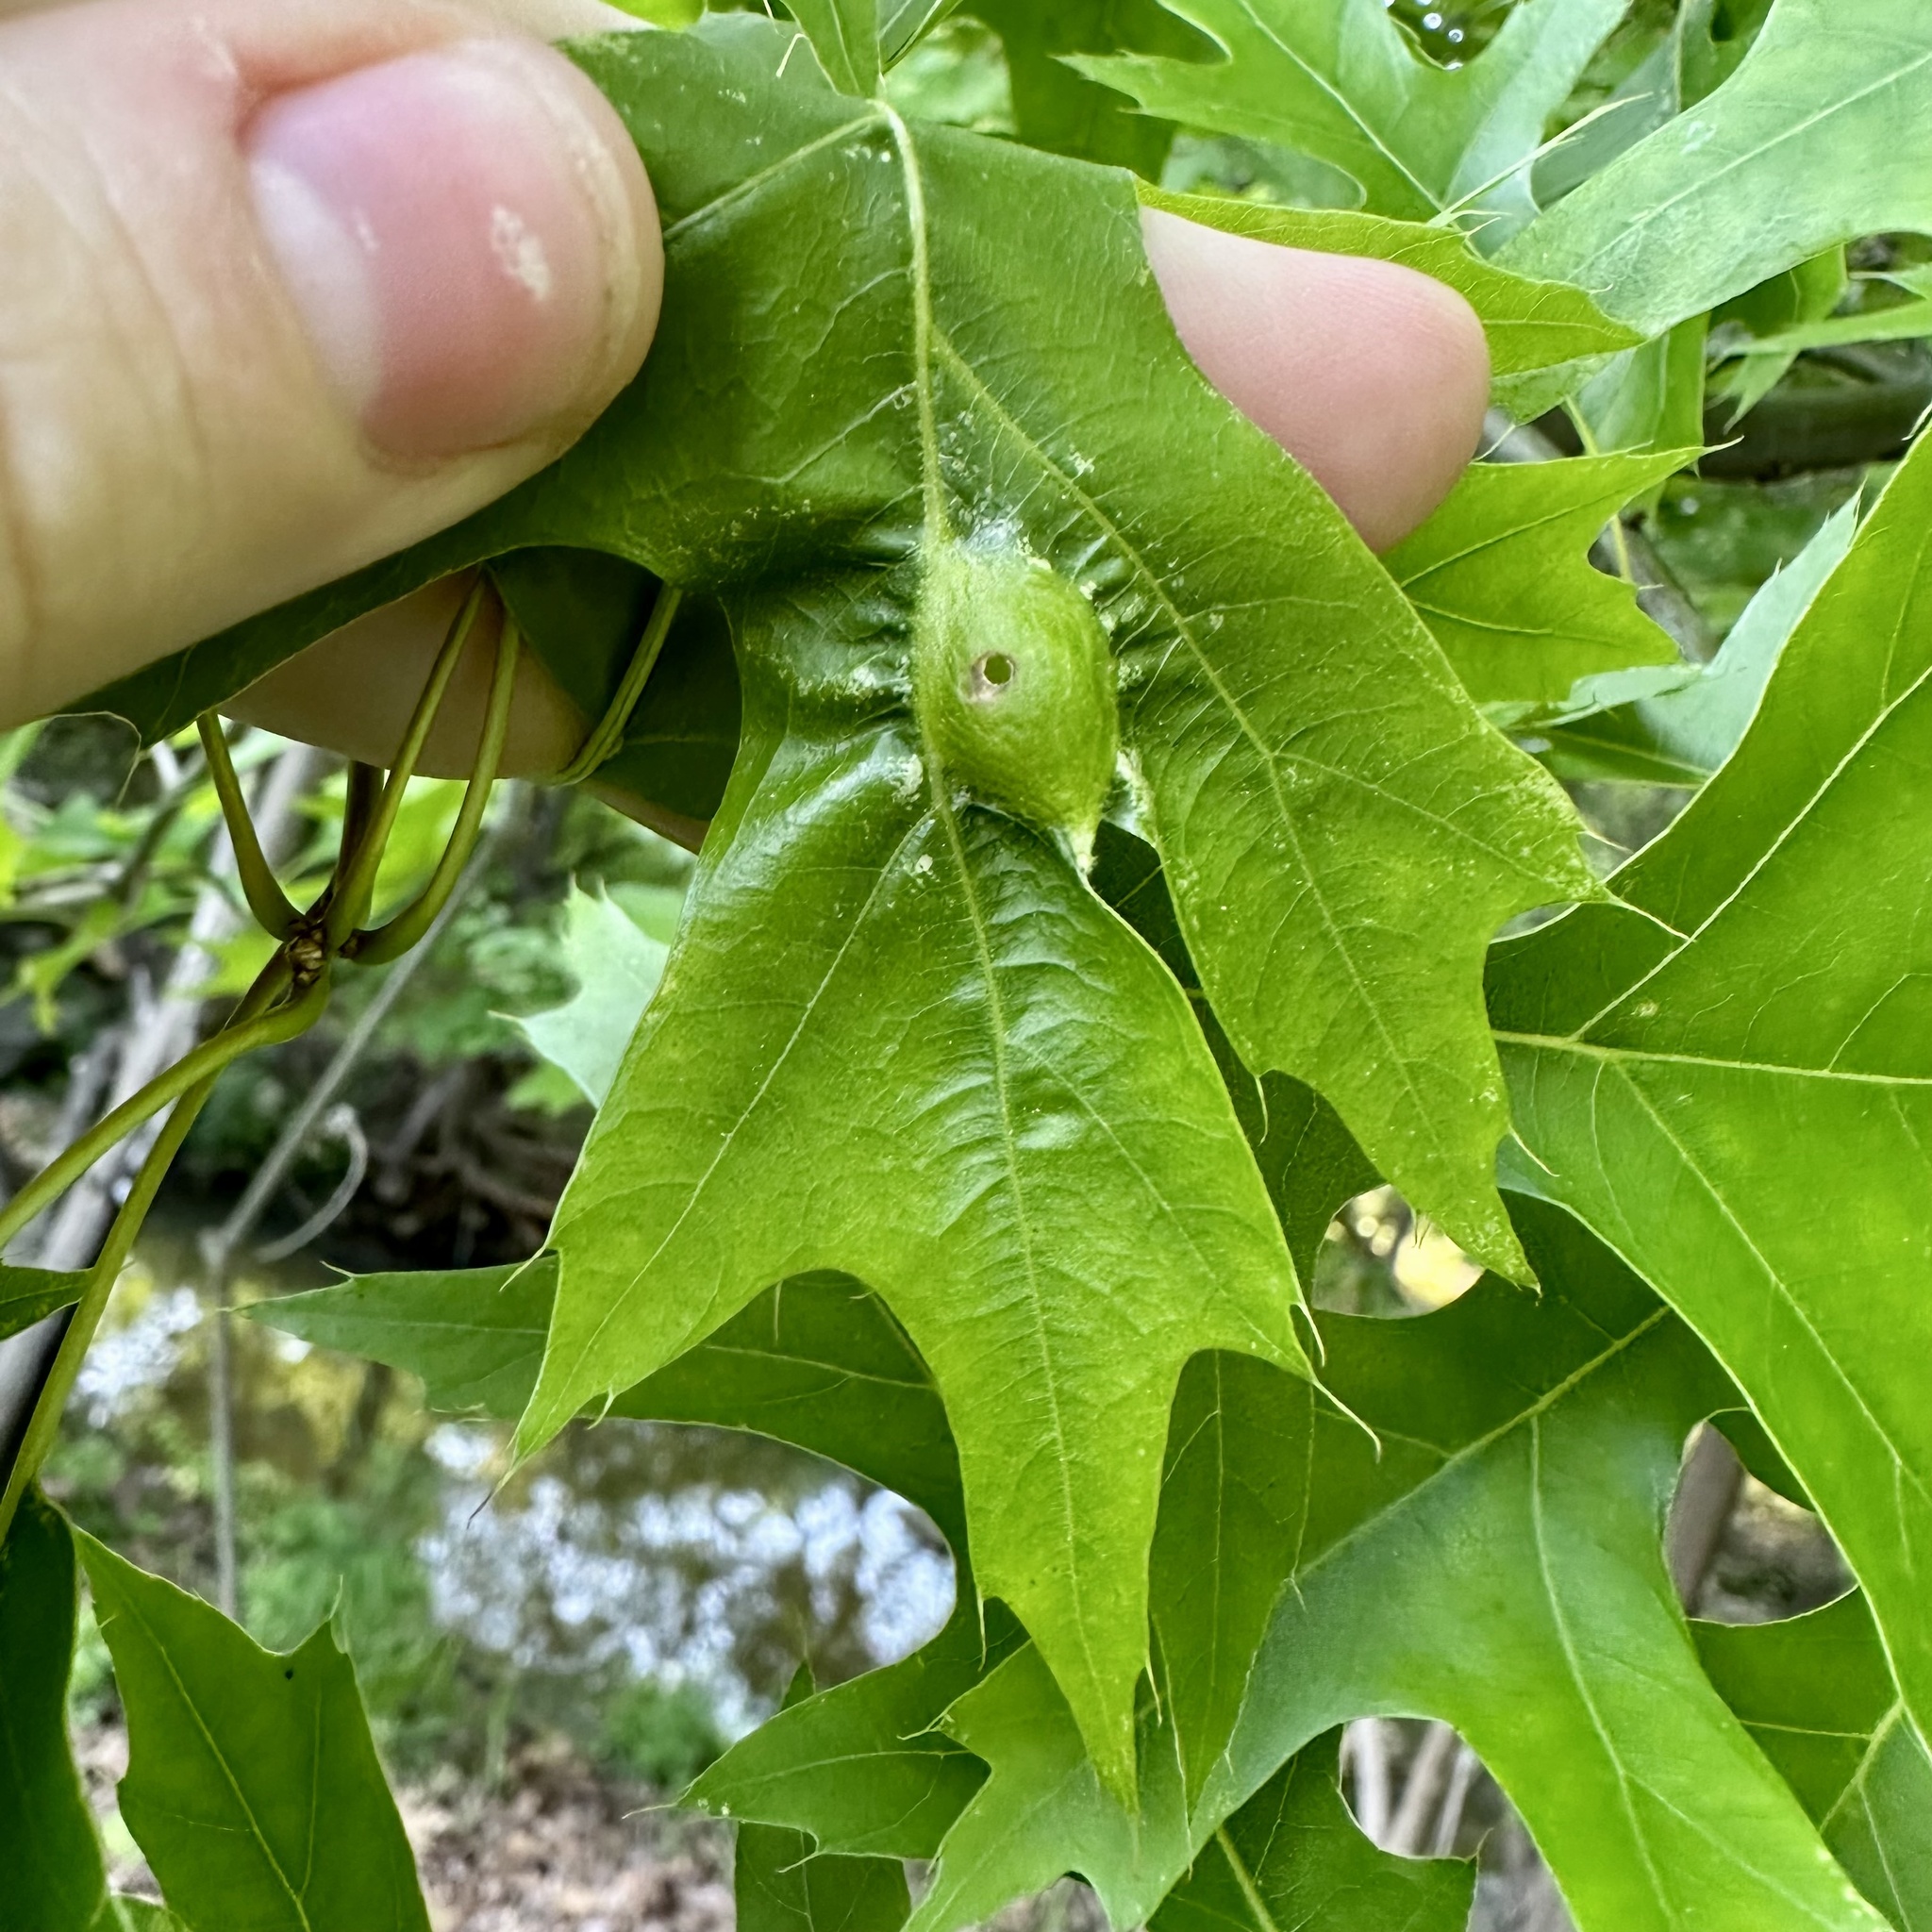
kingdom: Animalia
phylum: Arthropoda
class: Insecta
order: Hymenoptera
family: Cynipidae
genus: Dryocosmus
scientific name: Dryocosmus
